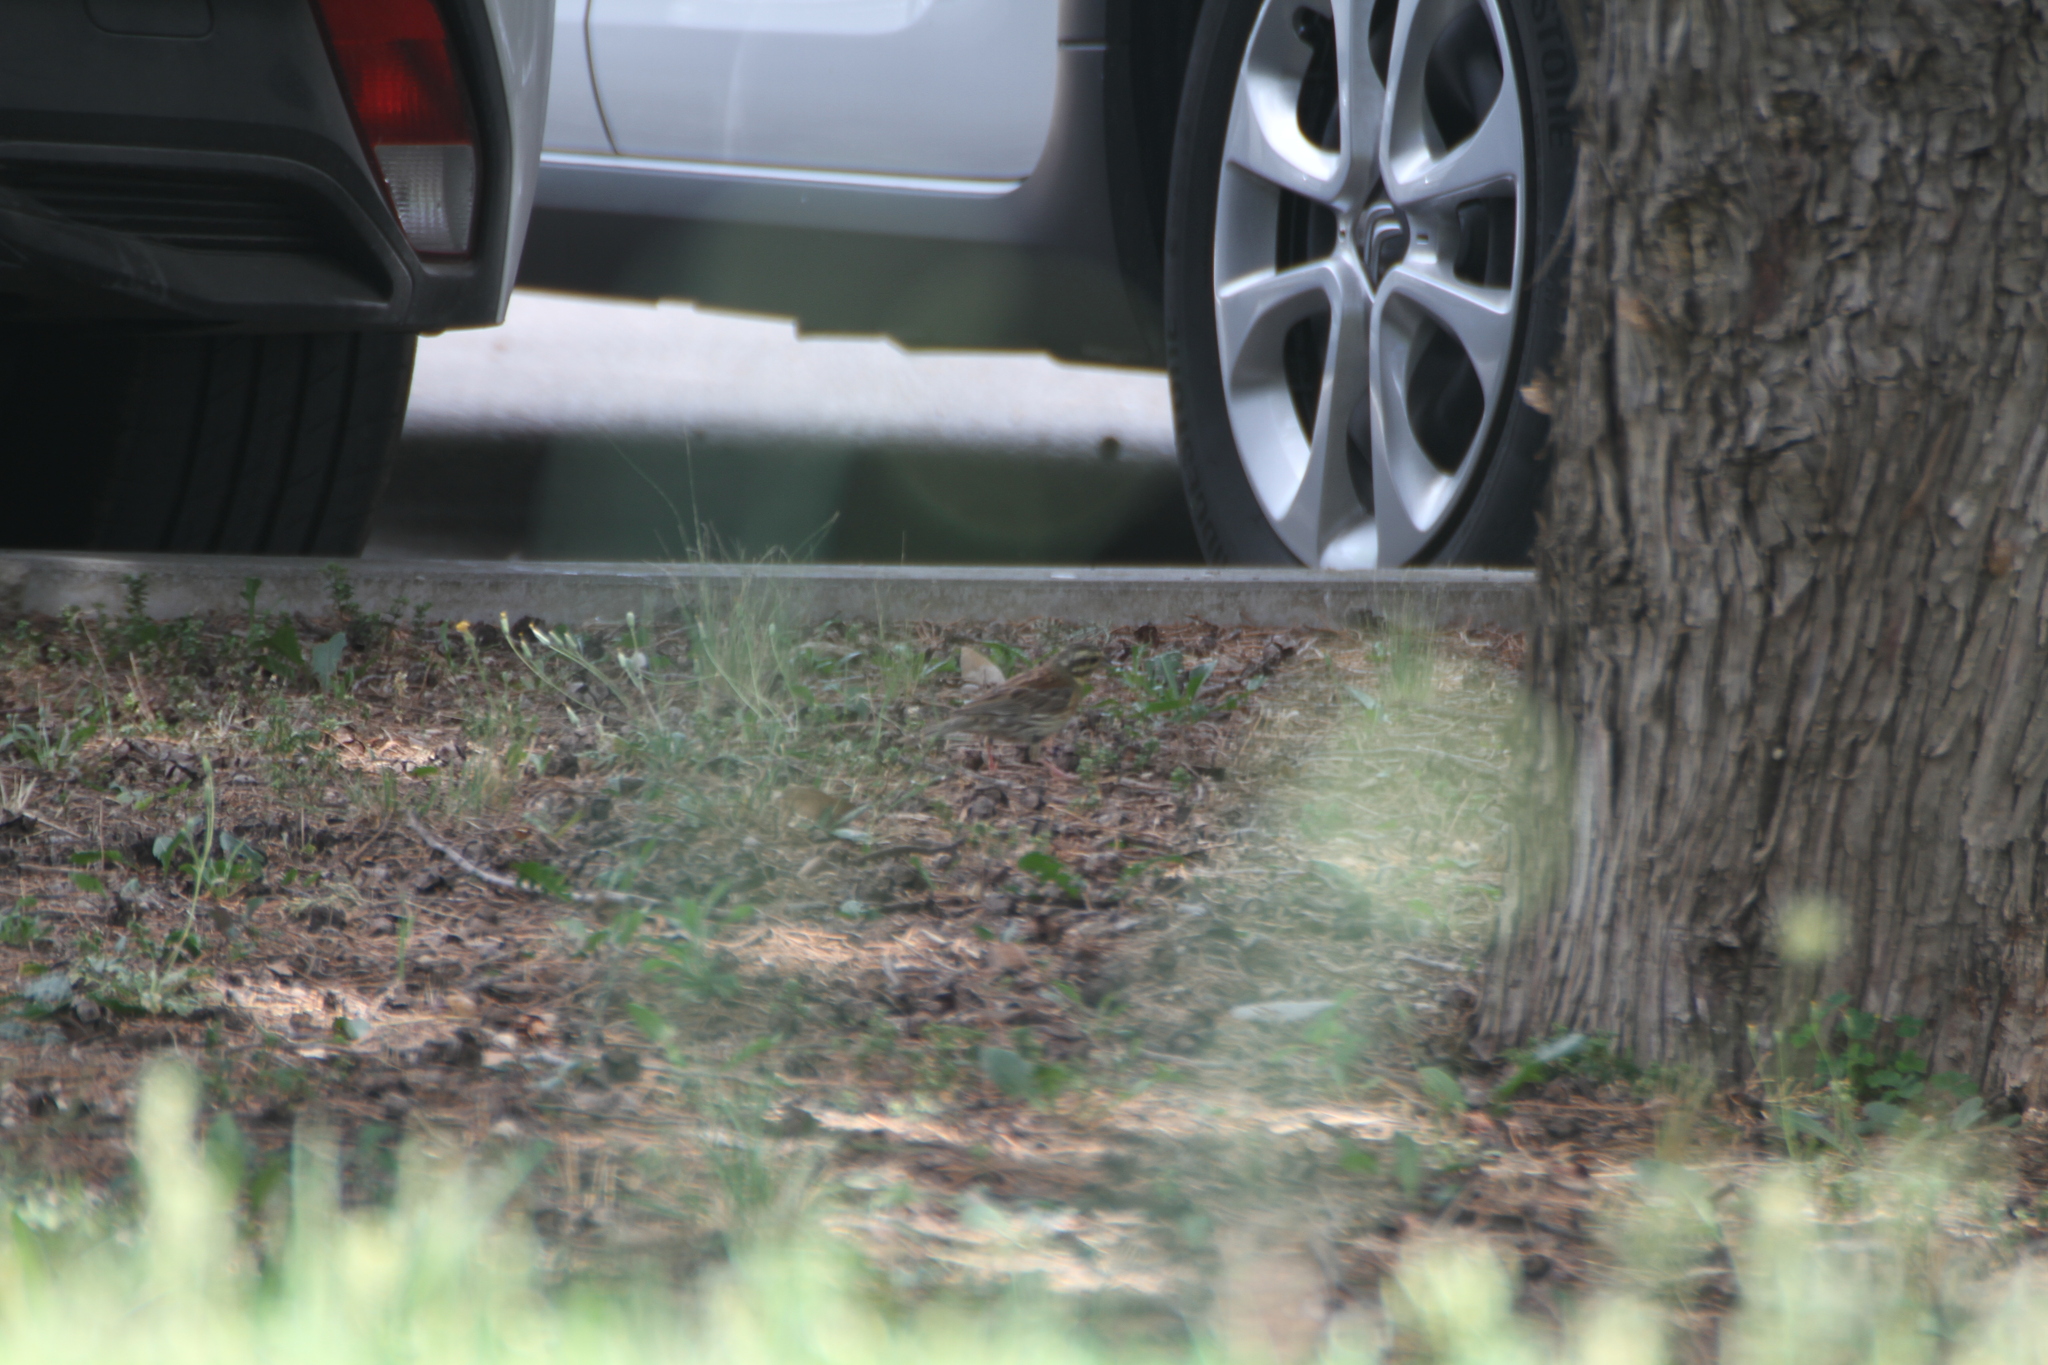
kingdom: Animalia
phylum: Chordata
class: Aves
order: Passeriformes
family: Emberizidae
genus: Emberiza
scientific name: Emberiza cirlus
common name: Cirl bunting
